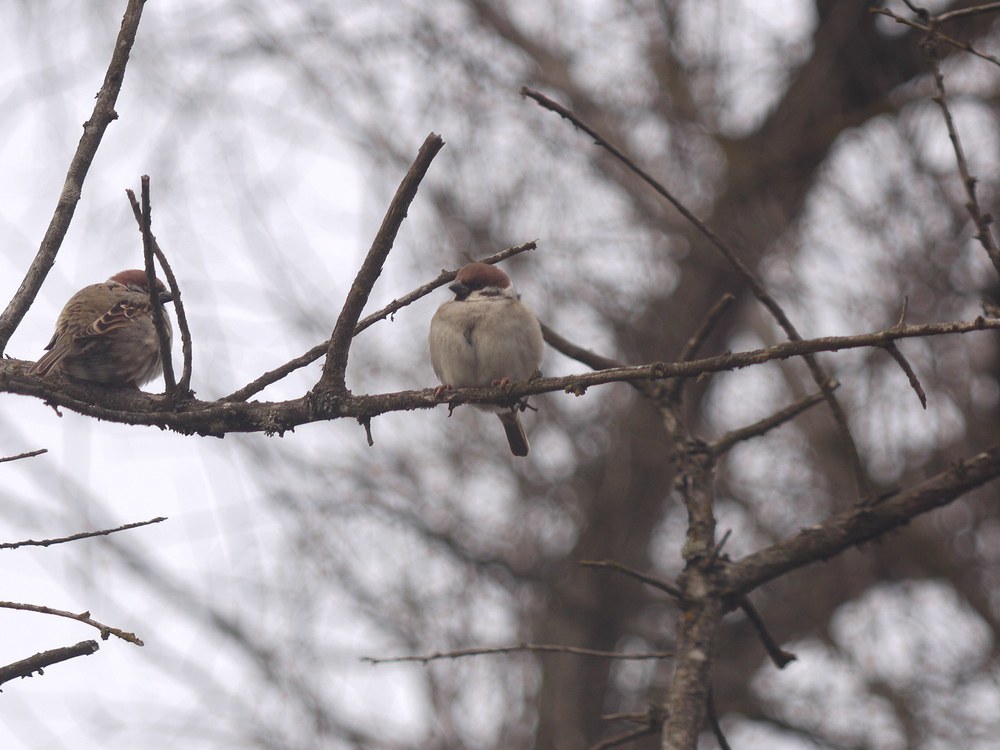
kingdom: Animalia
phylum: Chordata
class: Aves
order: Passeriformes
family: Passeridae
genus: Passer
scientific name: Passer montanus
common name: Eurasian tree sparrow
